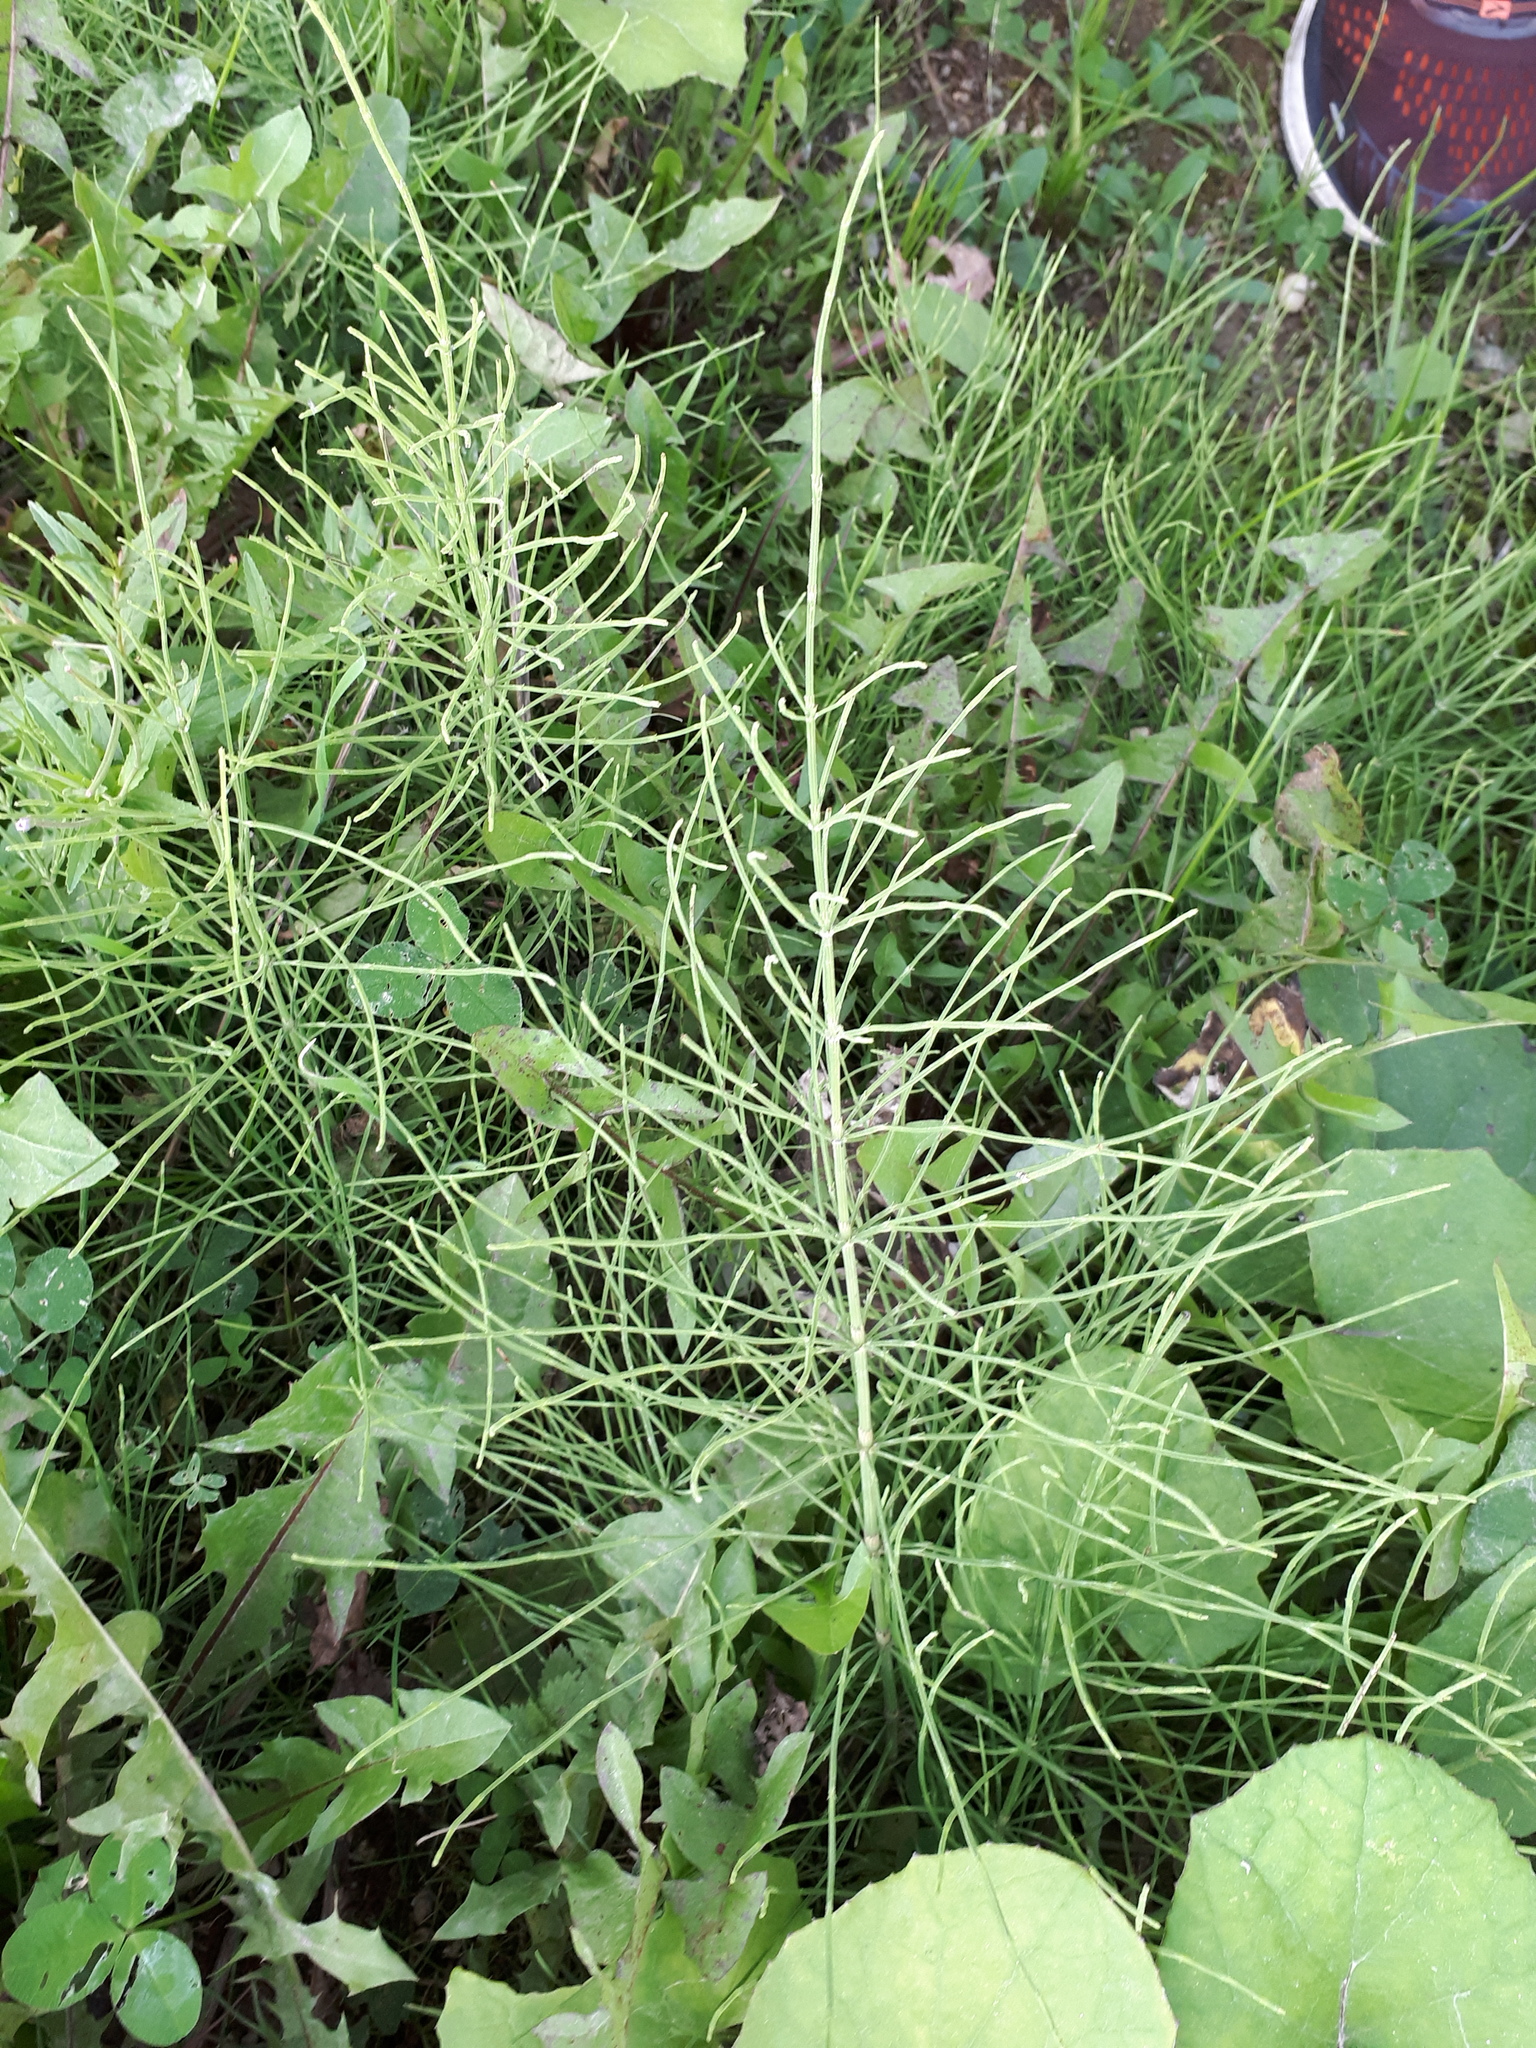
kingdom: Plantae
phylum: Tracheophyta
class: Polypodiopsida
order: Equisetales
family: Equisetaceae
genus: Equisetum
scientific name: Equisetum arvense
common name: Field horsetail
